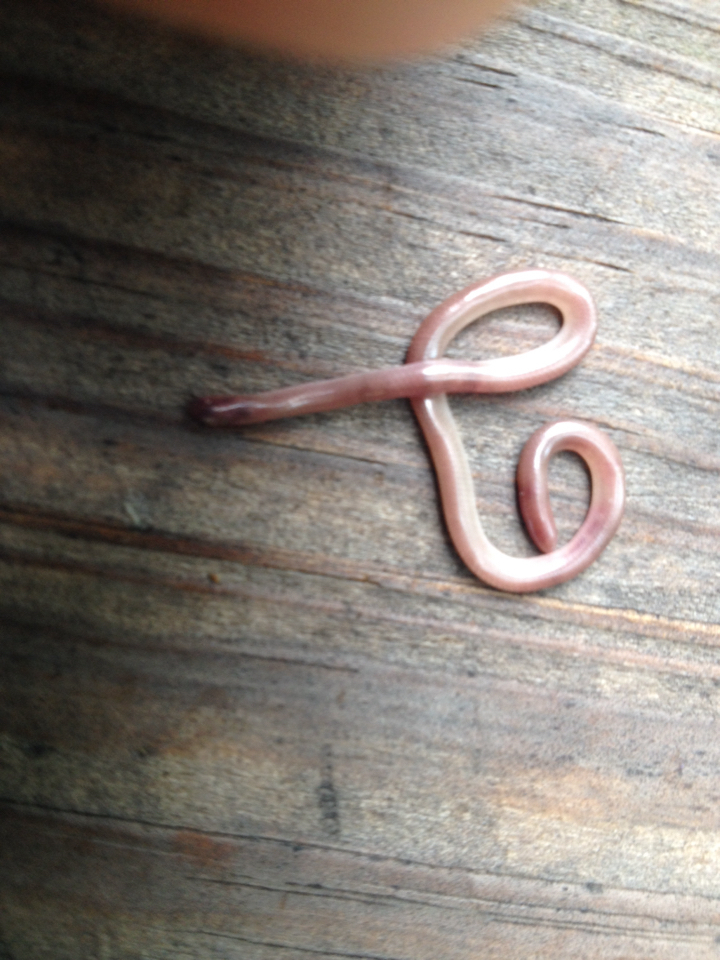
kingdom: Animalia
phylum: Chordata
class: Squamata
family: Leptotyphlopidae
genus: Rena
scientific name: Rena dulcis
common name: Texas blind snake
